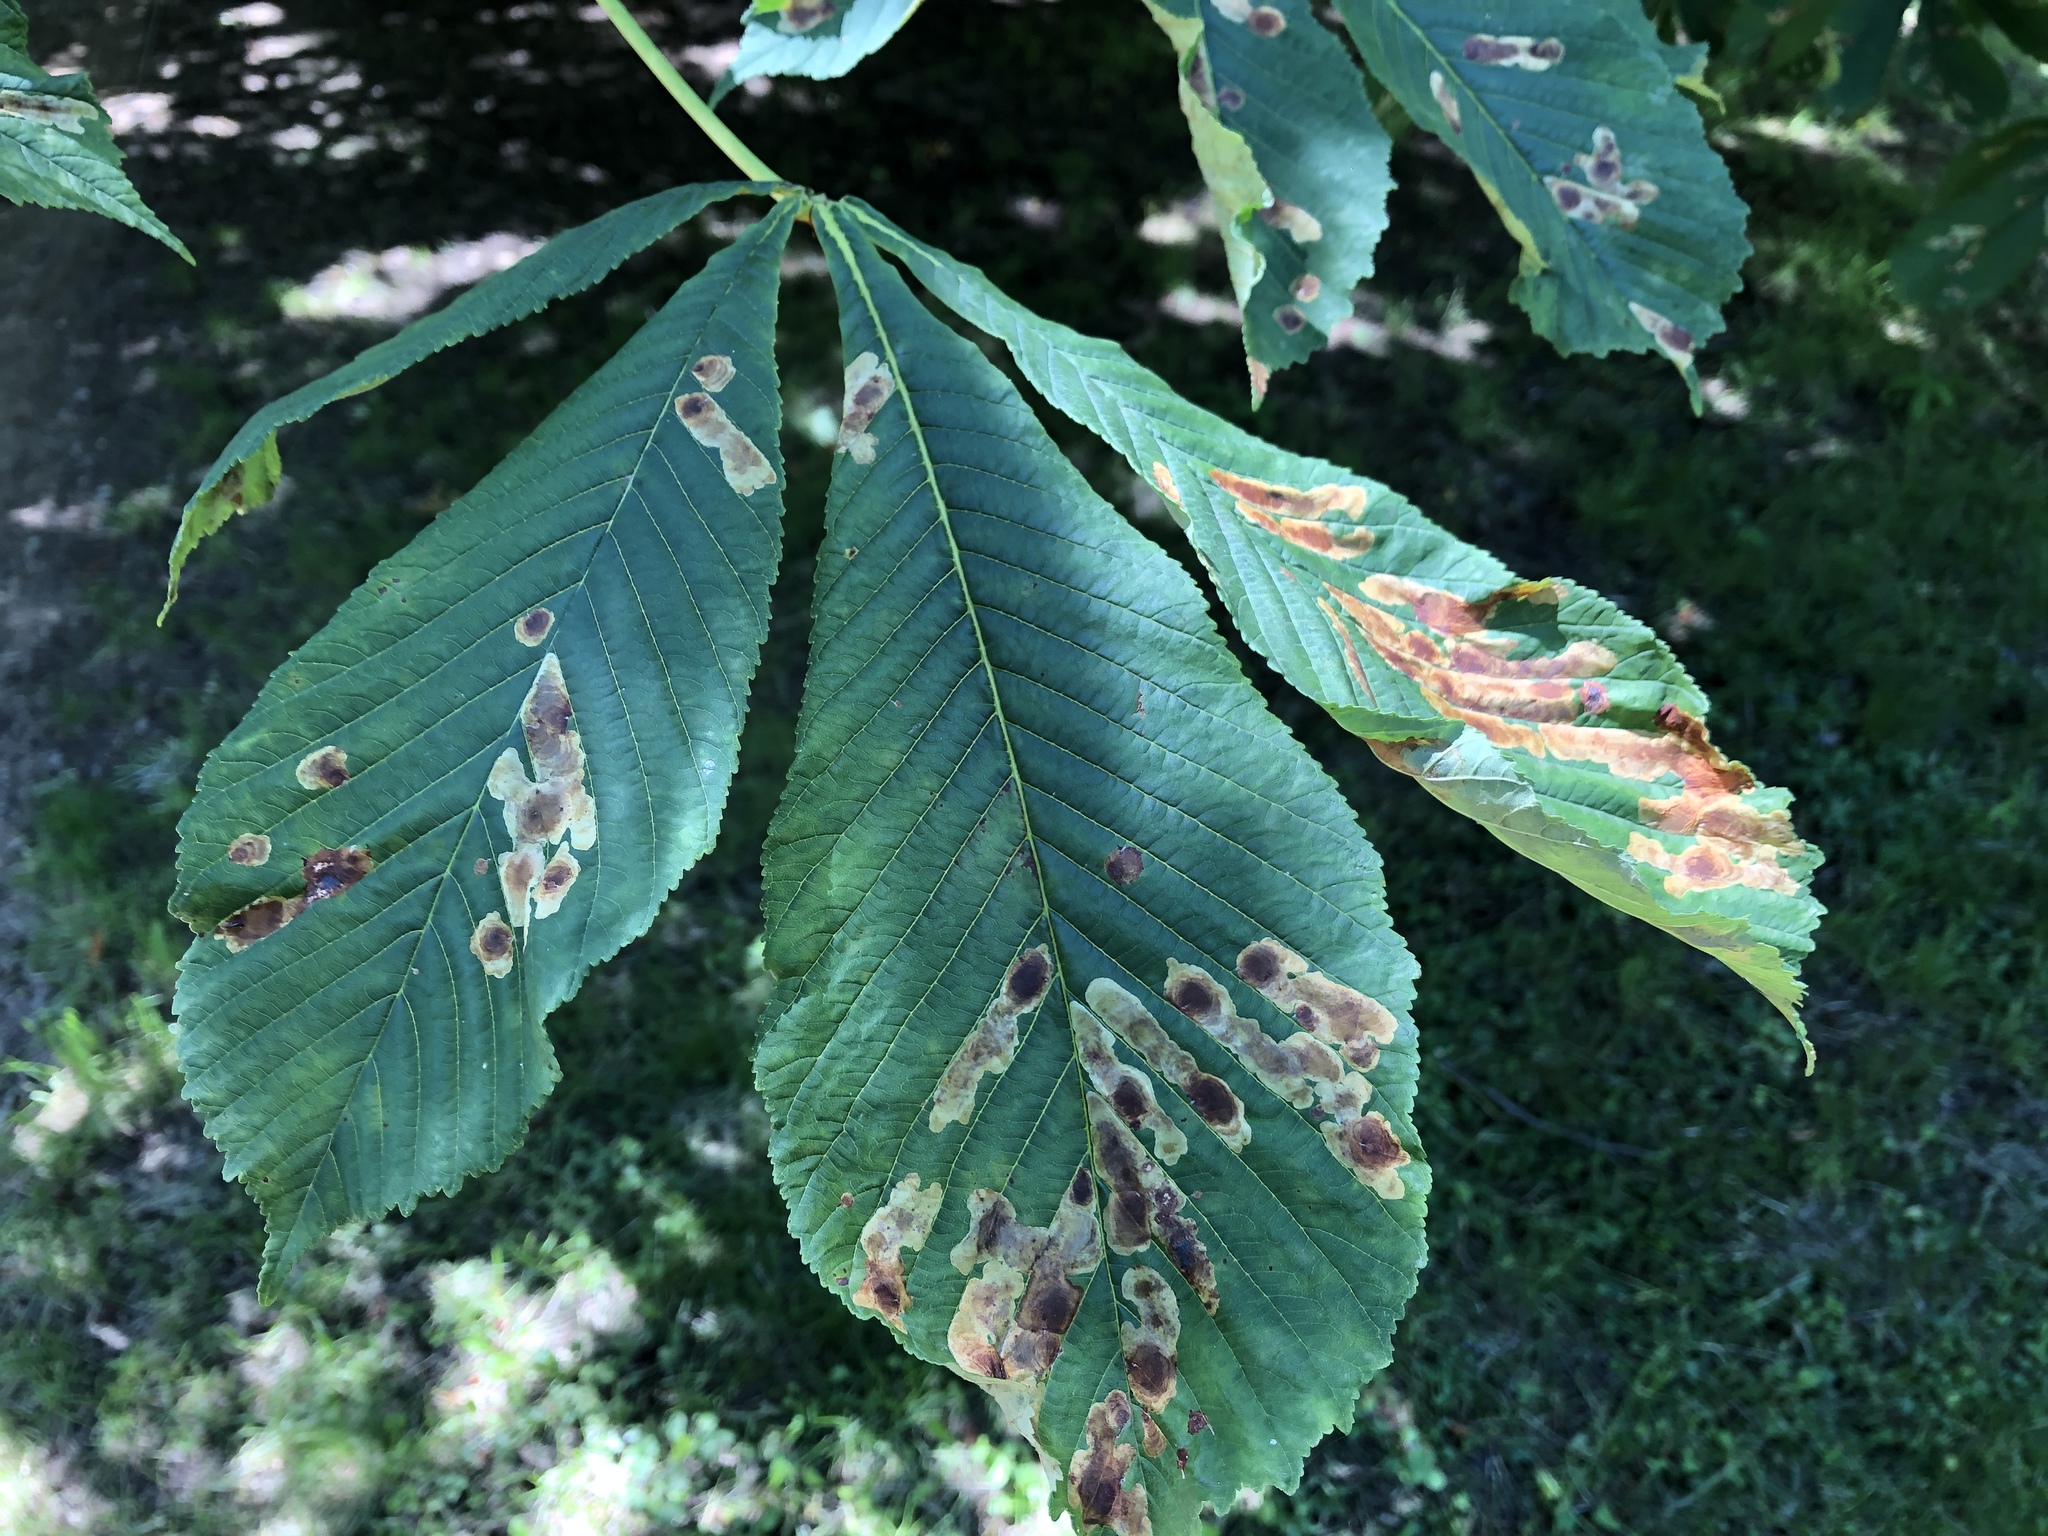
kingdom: Animalia
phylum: Arthropoda
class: Insecta
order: Lepidoptera
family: Gracillariidae
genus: Cameraria
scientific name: Cameraria ohridella
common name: Horse-chestnut leaf-miner
